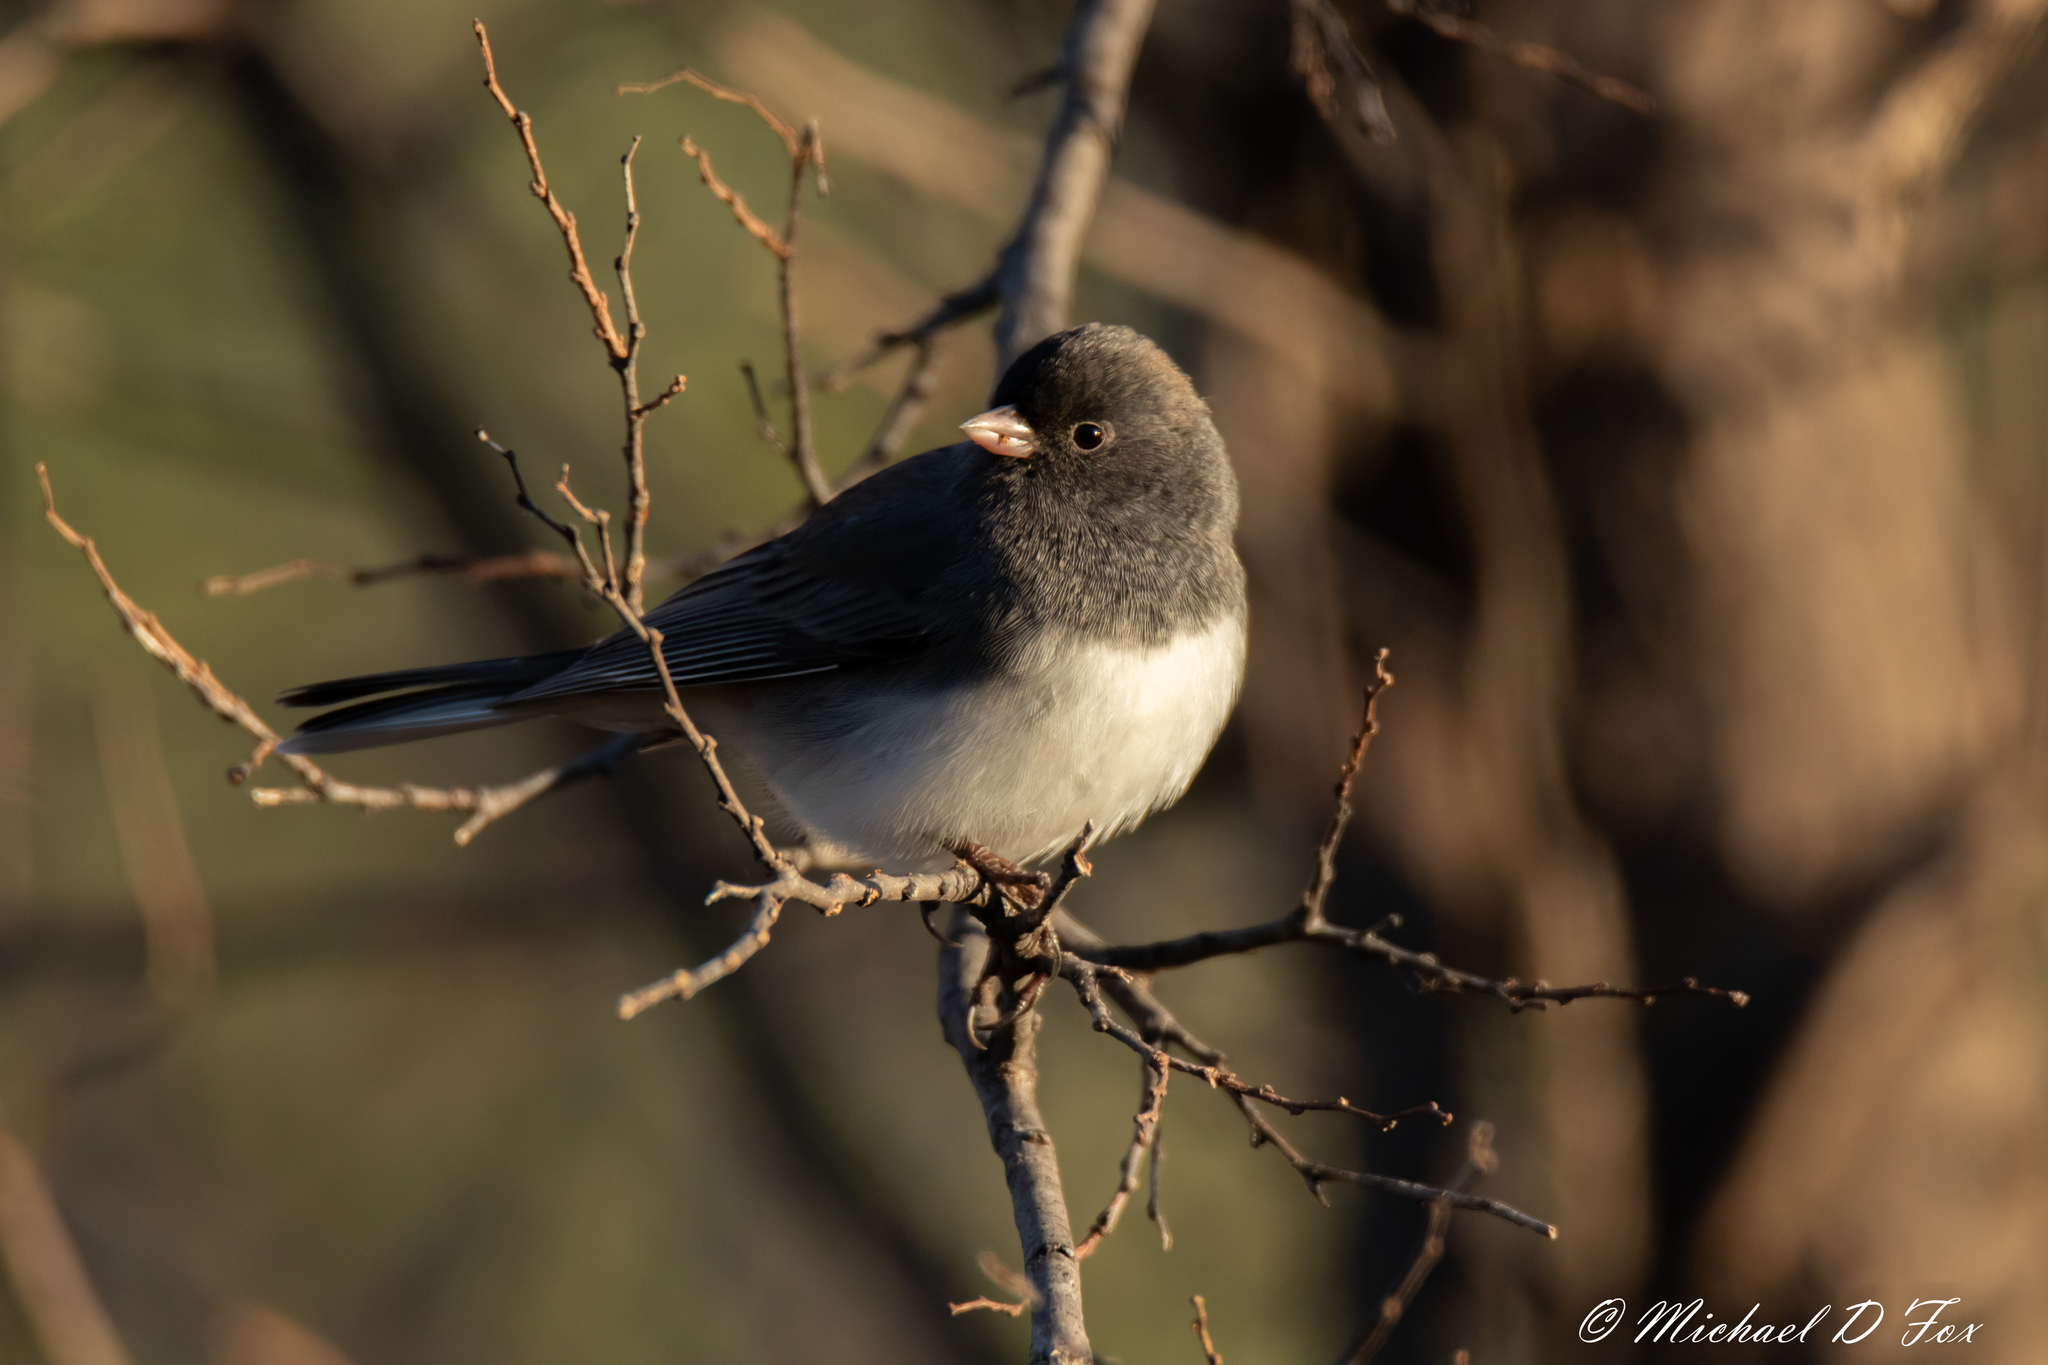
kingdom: Animalia
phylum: Chordata
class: Aves
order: Passeriformes
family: Passerellidae
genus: Junco
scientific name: Junco hyemalis
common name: Dark-eyed junco
